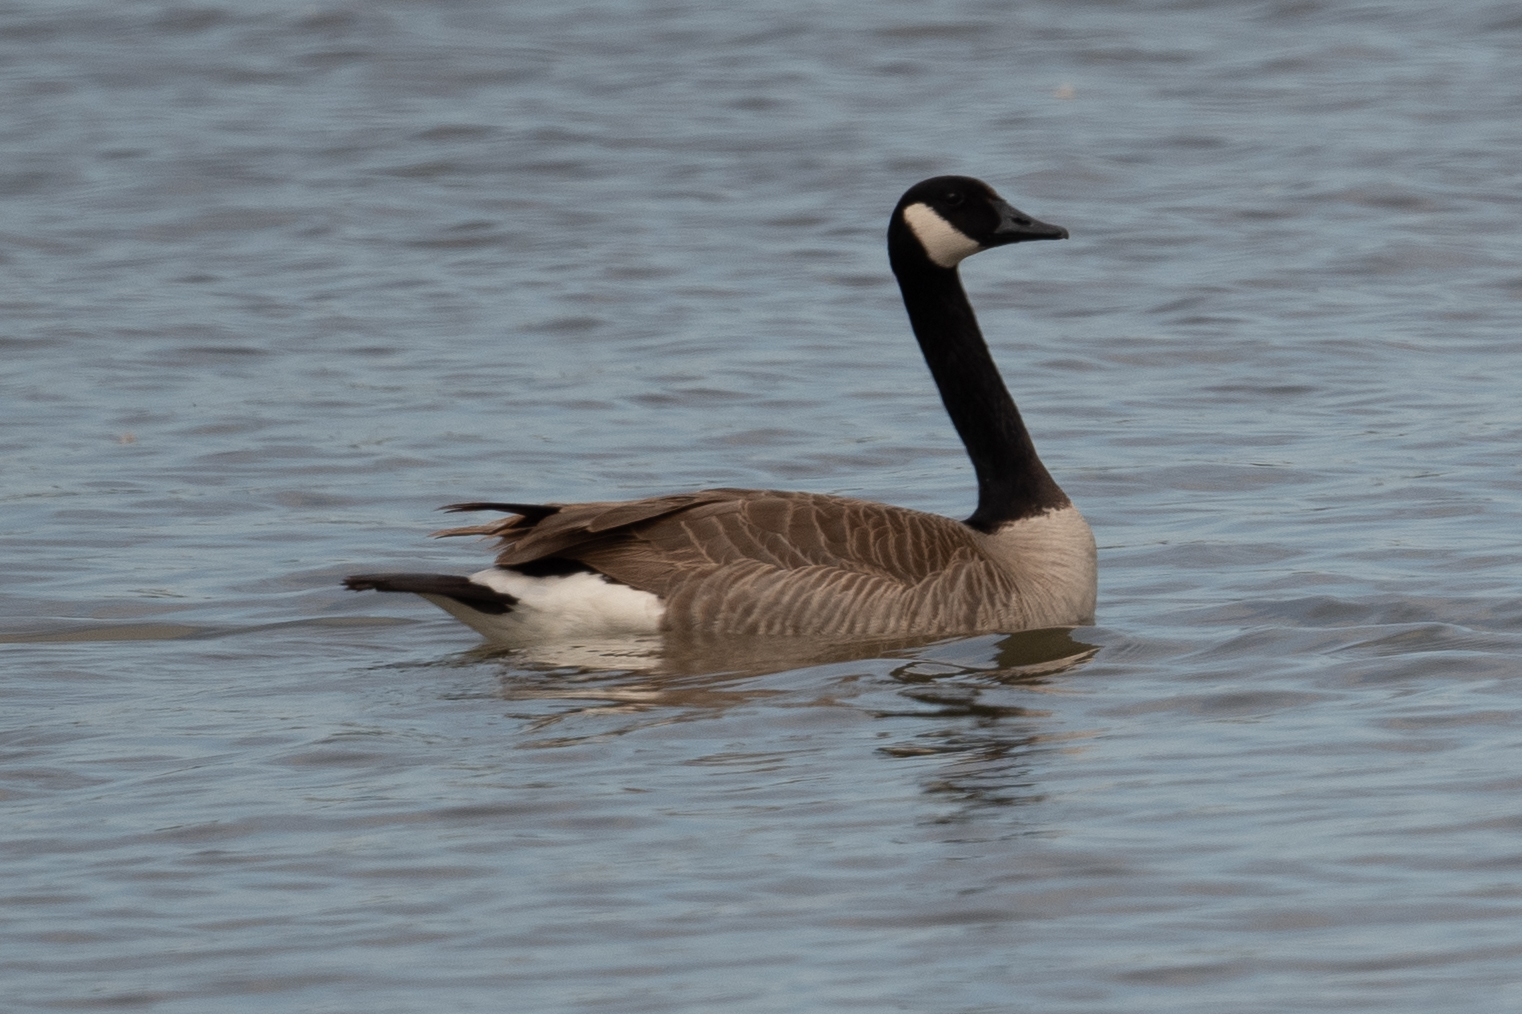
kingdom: Animalia
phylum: Chordata
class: Aves
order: Anseriformes
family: Anatidae
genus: Branta
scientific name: Branta canadensis
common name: Canada goose
